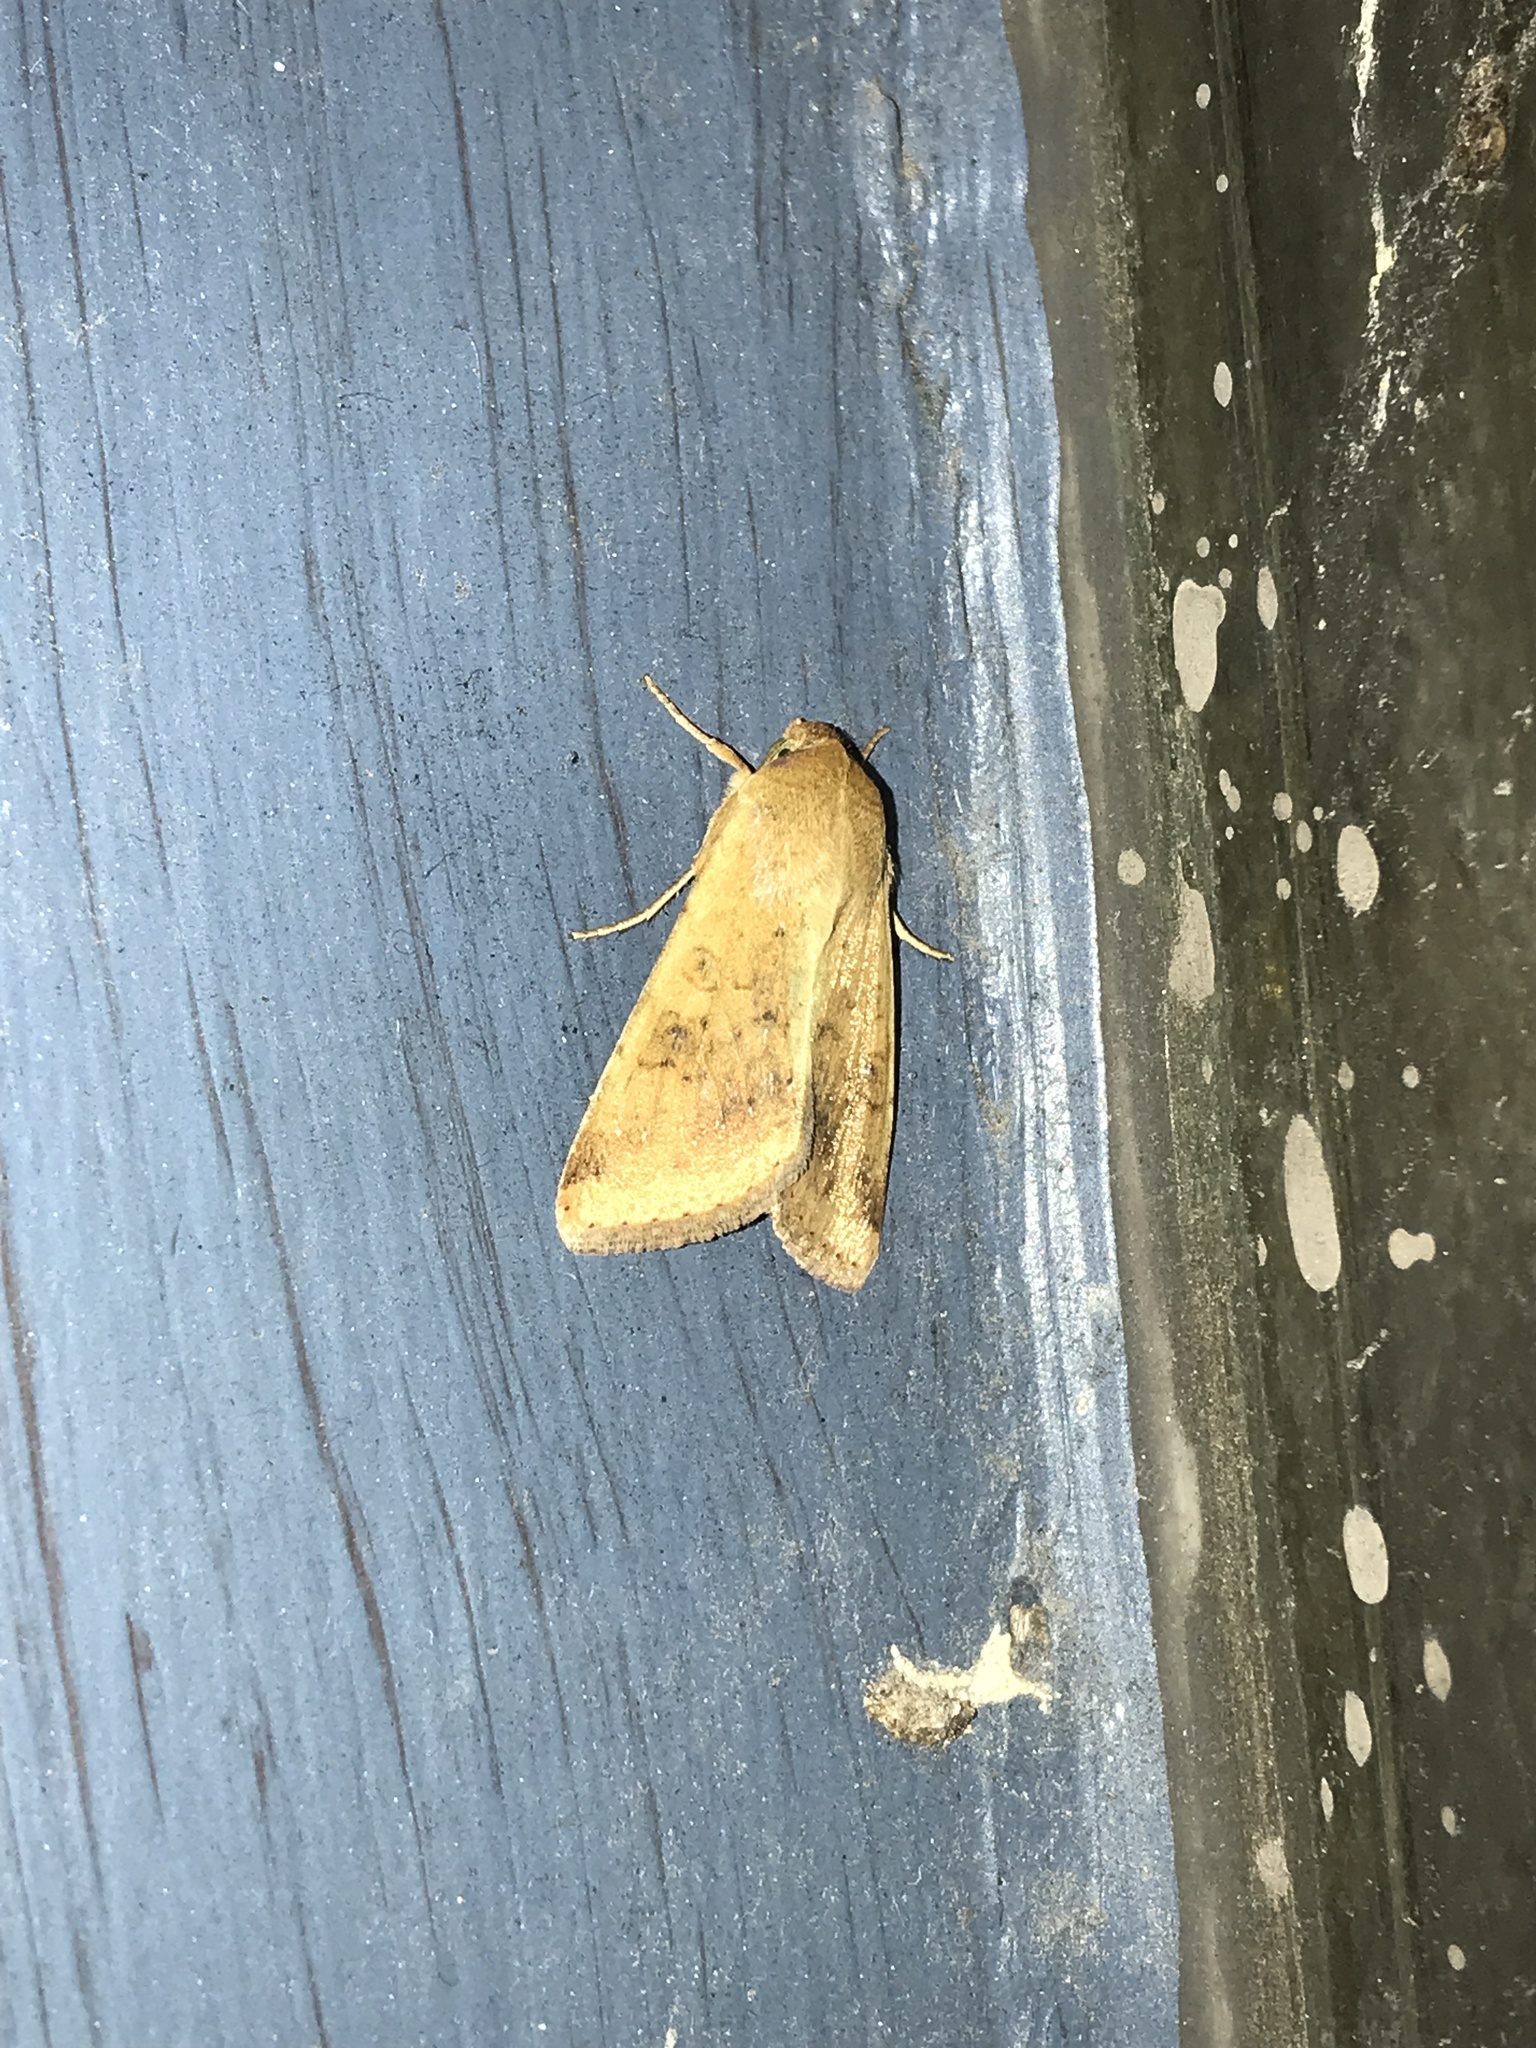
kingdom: Animalia
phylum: Arthropoda
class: Insecta
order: Lepidoptera
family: Noctuidae
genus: Helicoverpa
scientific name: Helicoverpa zea
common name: Bollworm
